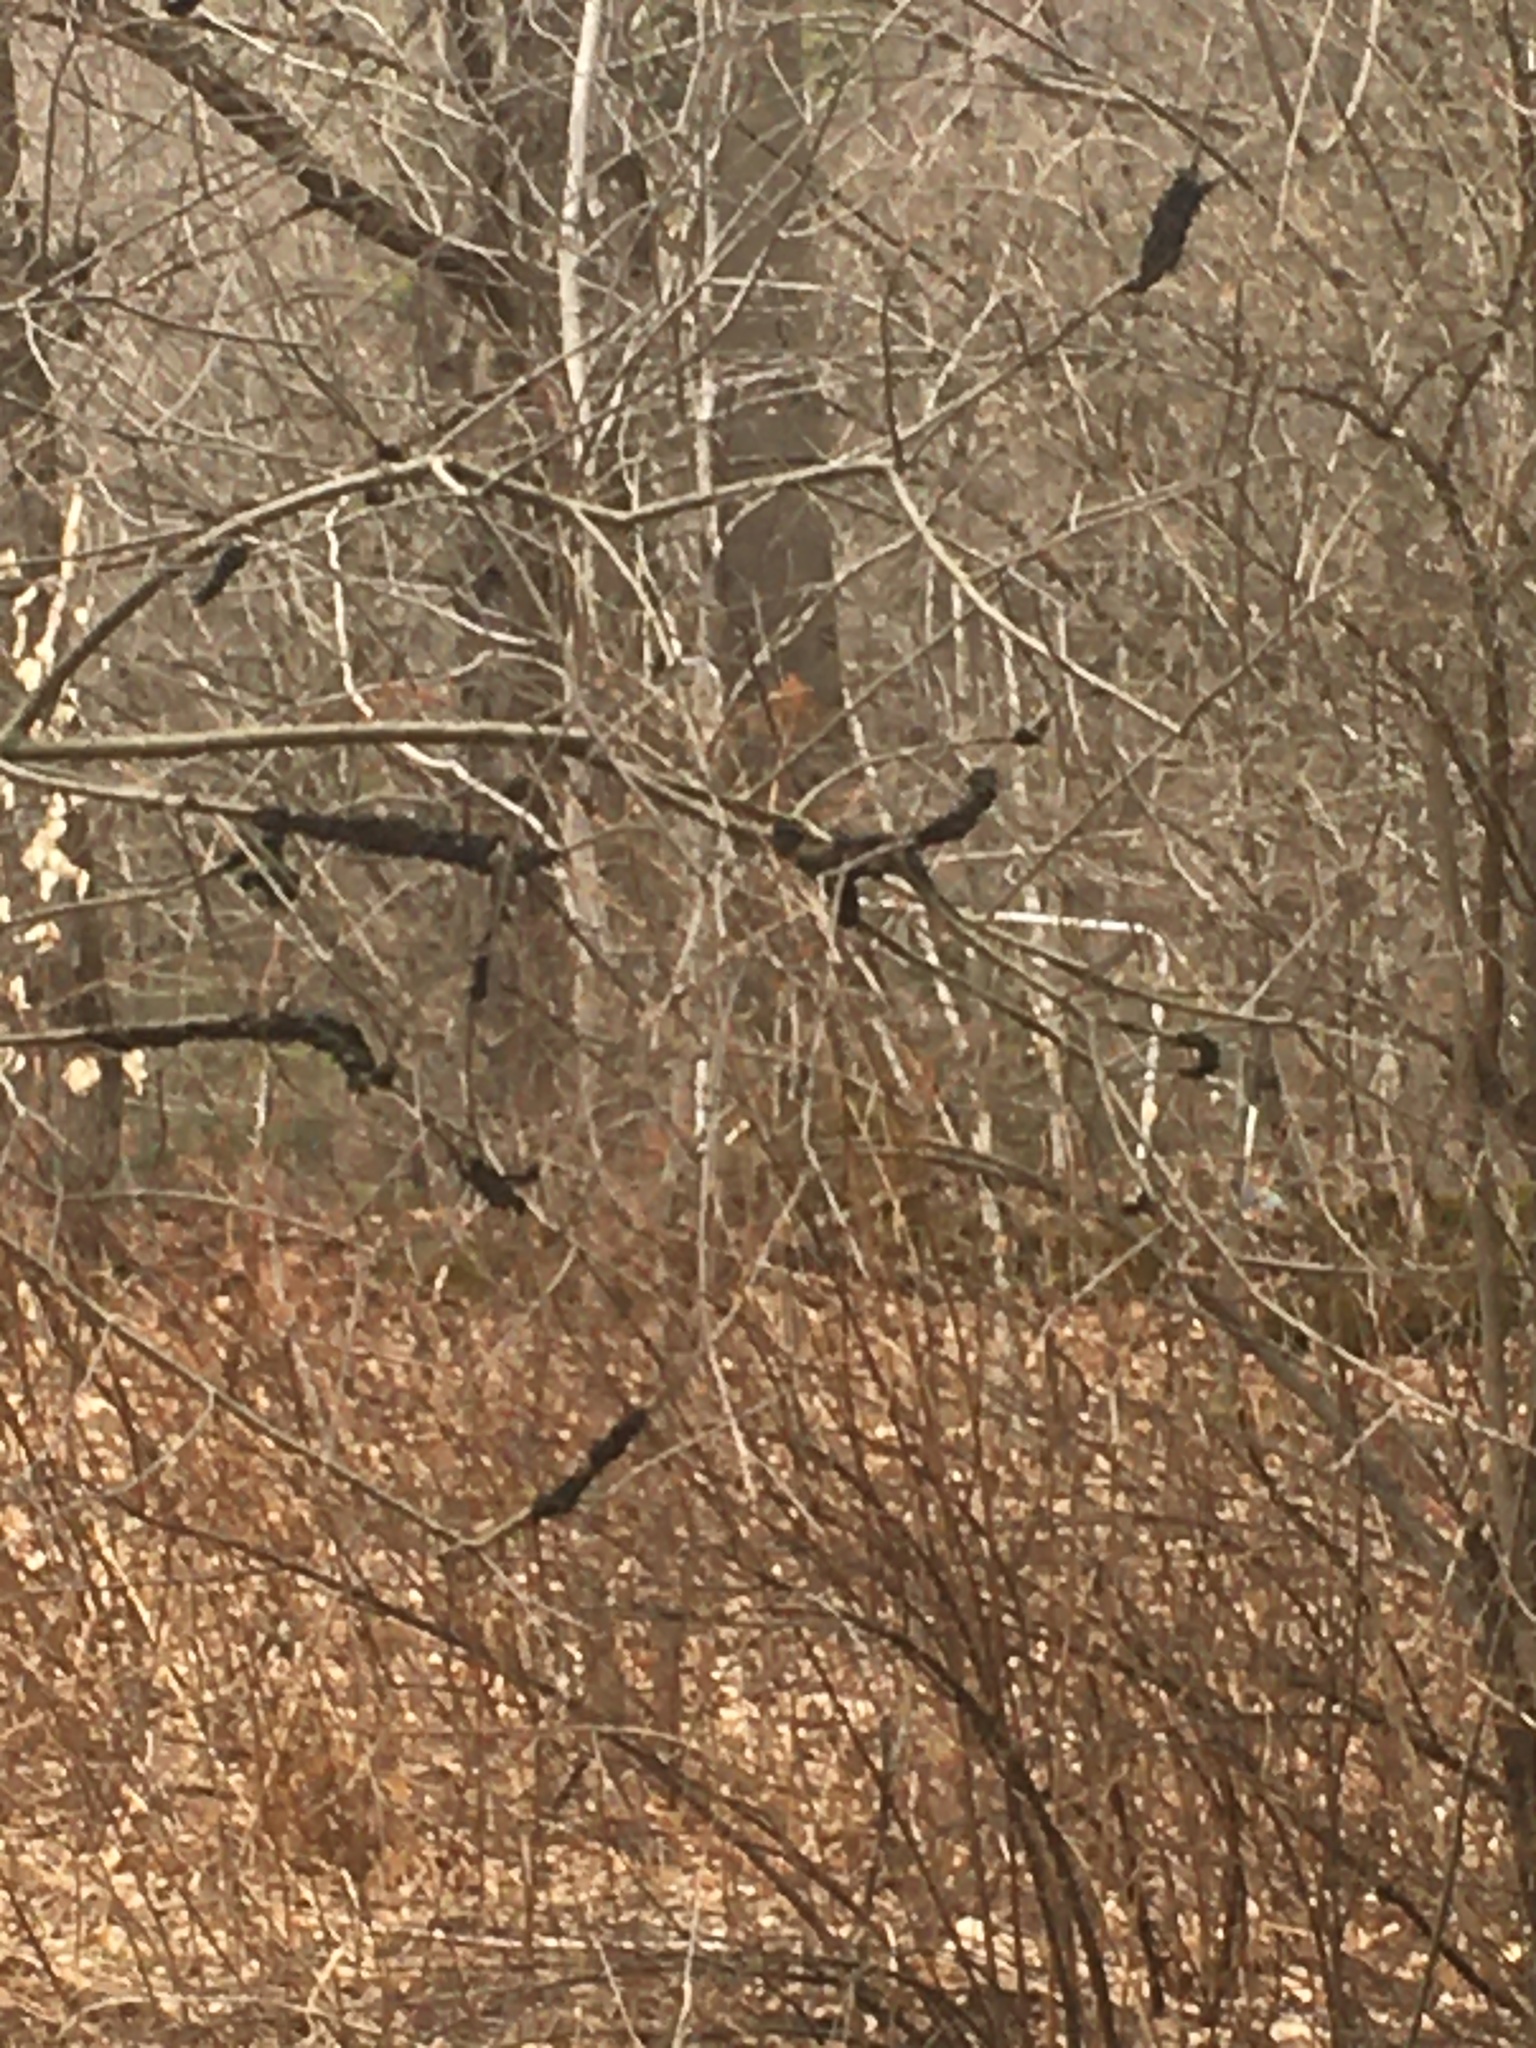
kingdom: Fungi
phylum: Ascomycota
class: Dothideomycetes
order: Venturiales
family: Venturiaceae
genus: Apiosporina
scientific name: Apiosporina morbosa
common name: Black knot
